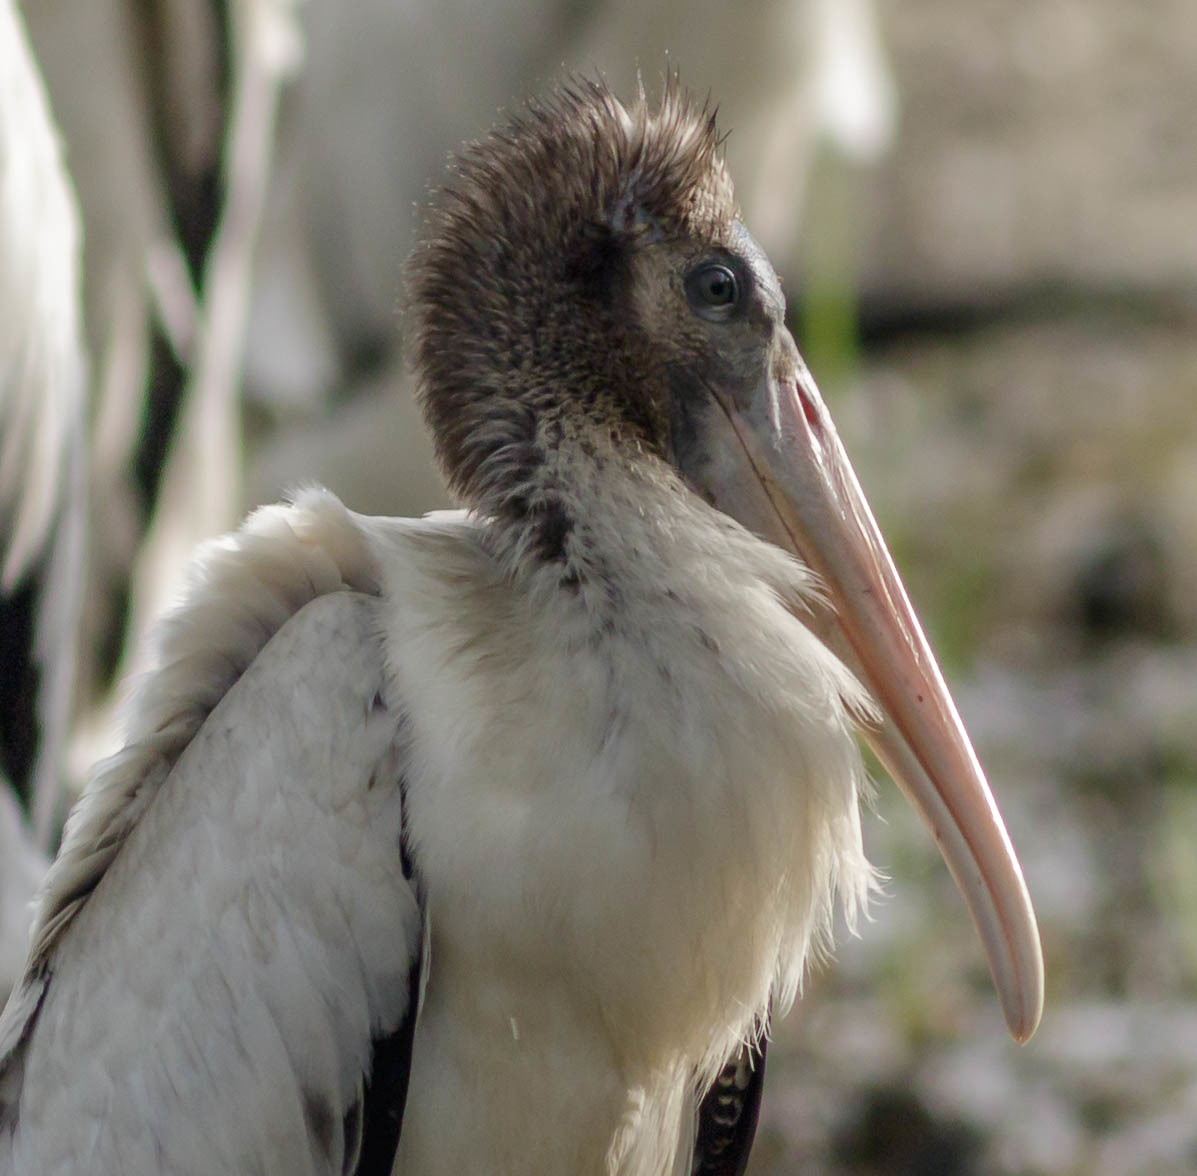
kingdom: Animalia
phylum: Chordata
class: Aves
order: Ciconiiformes
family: Ciconiidae
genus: Mycteria
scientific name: Mycteria americana
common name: Wood stork
